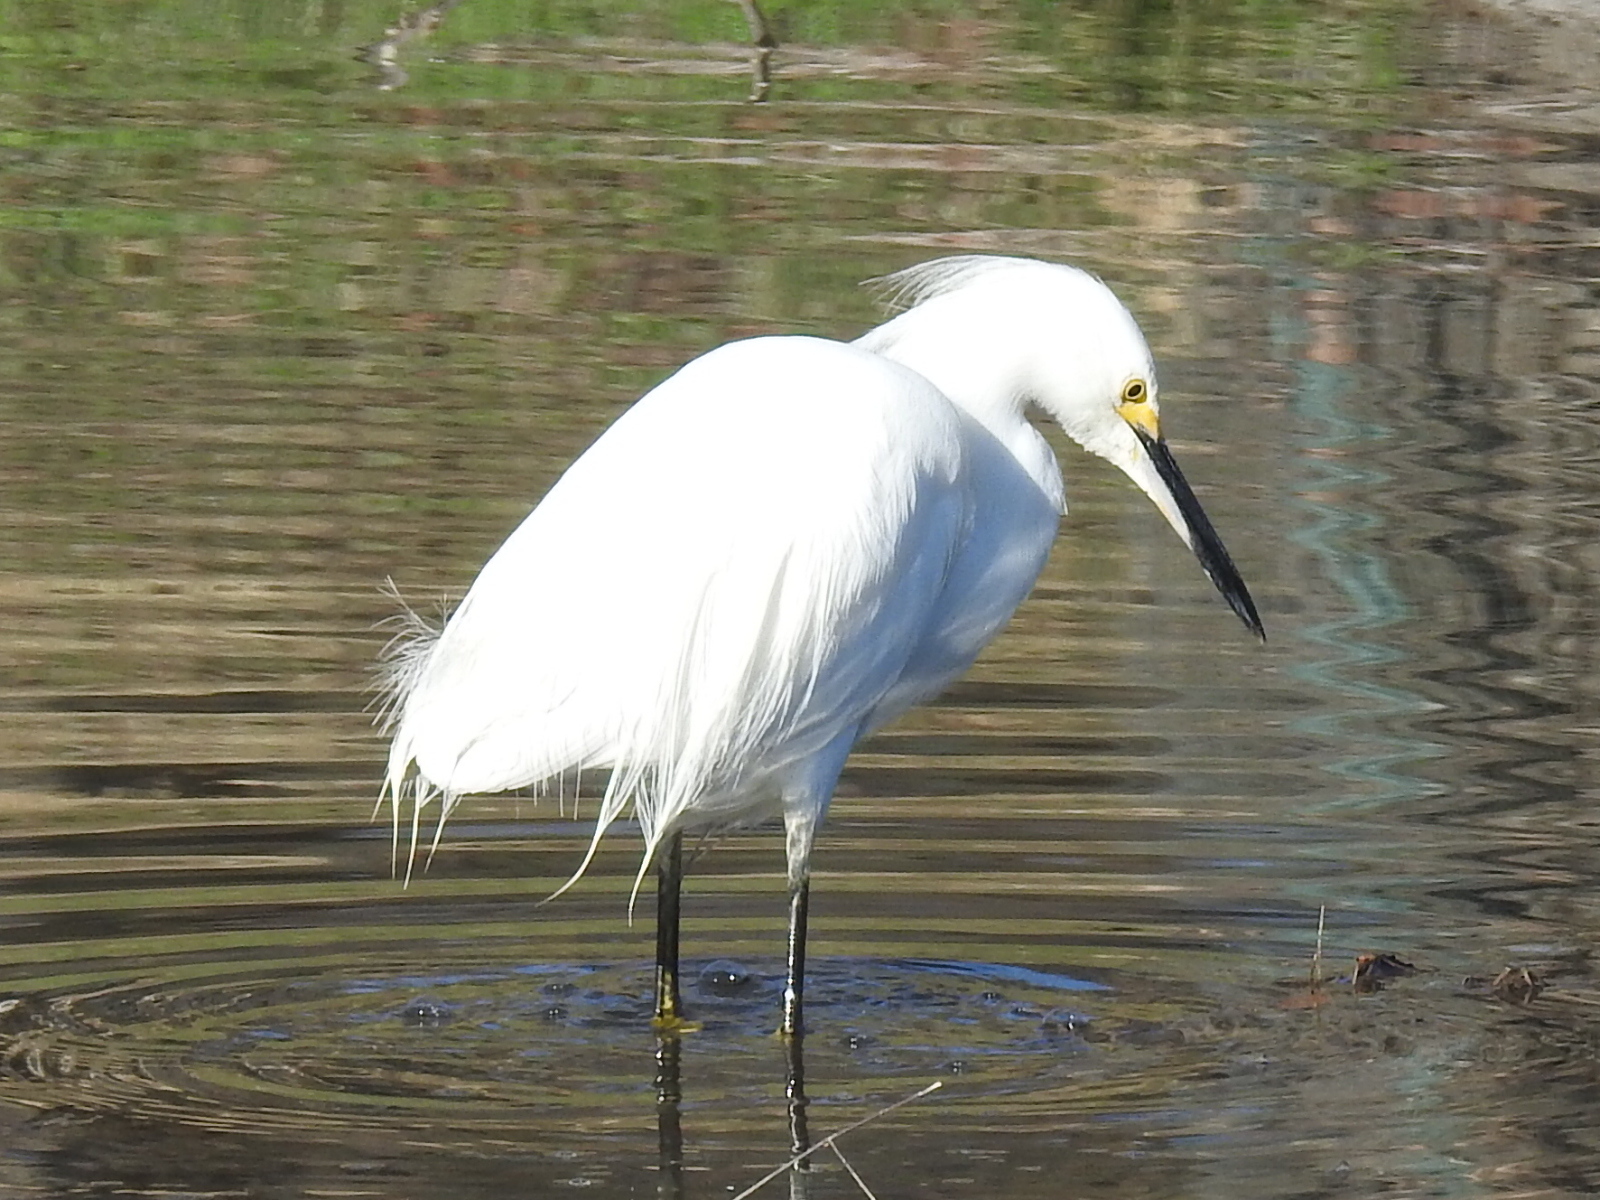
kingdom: Animalia
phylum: Chordata
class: Aves
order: Pelecaniformes
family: Ardeidae
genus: Egretta
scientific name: Egretta thula
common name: Snowy egret
